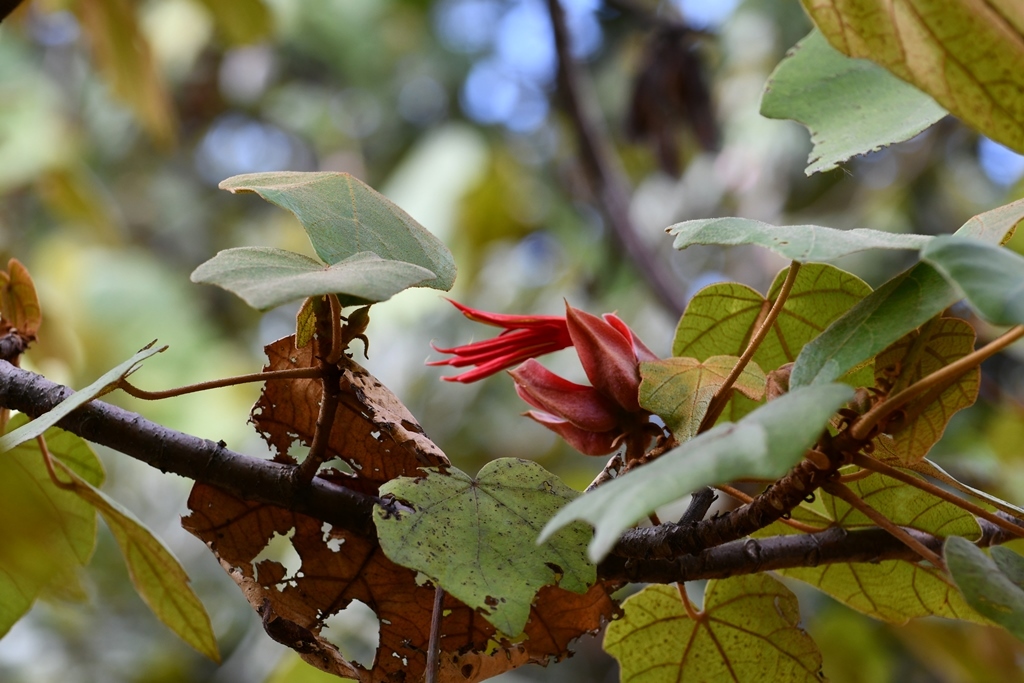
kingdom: Plantae
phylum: Tracheophyta
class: Magnoliopsida
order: Malvales
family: Malvaceae
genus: Chiranthodendron
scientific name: Chiranthodendron pentadactylon
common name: Mexican-hat-plant
